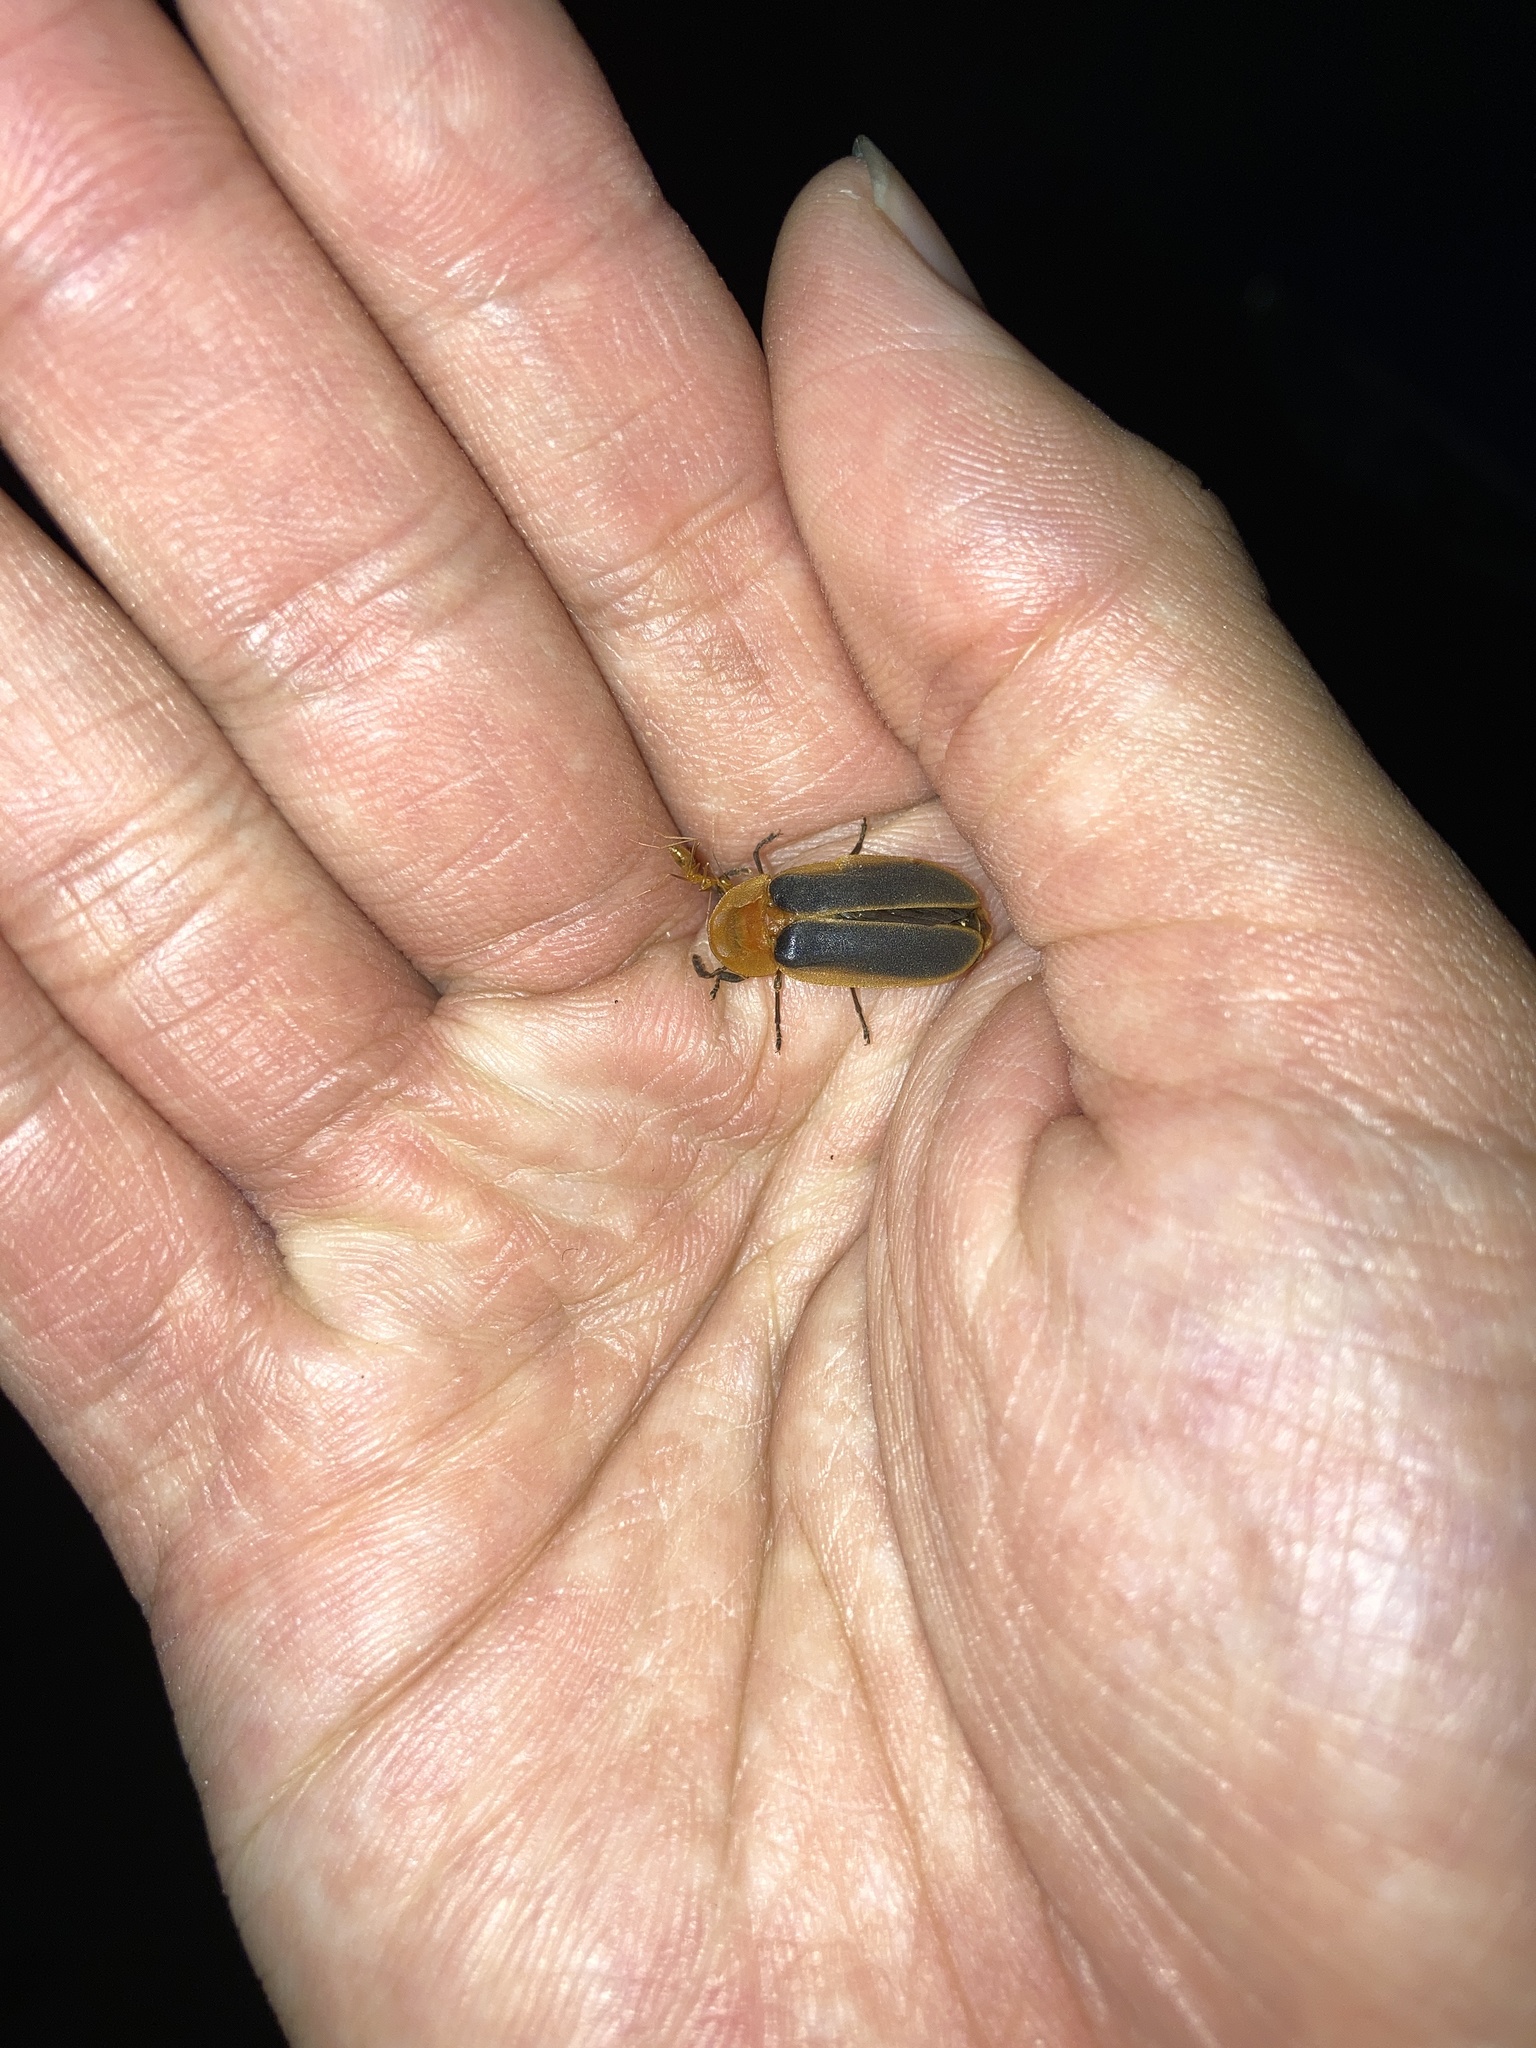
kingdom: Animalia
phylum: Arthropoda
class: Insecta
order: Coleoptera
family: Lampyridae
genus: Pyrocoelia
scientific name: Pyrocoelia analis
